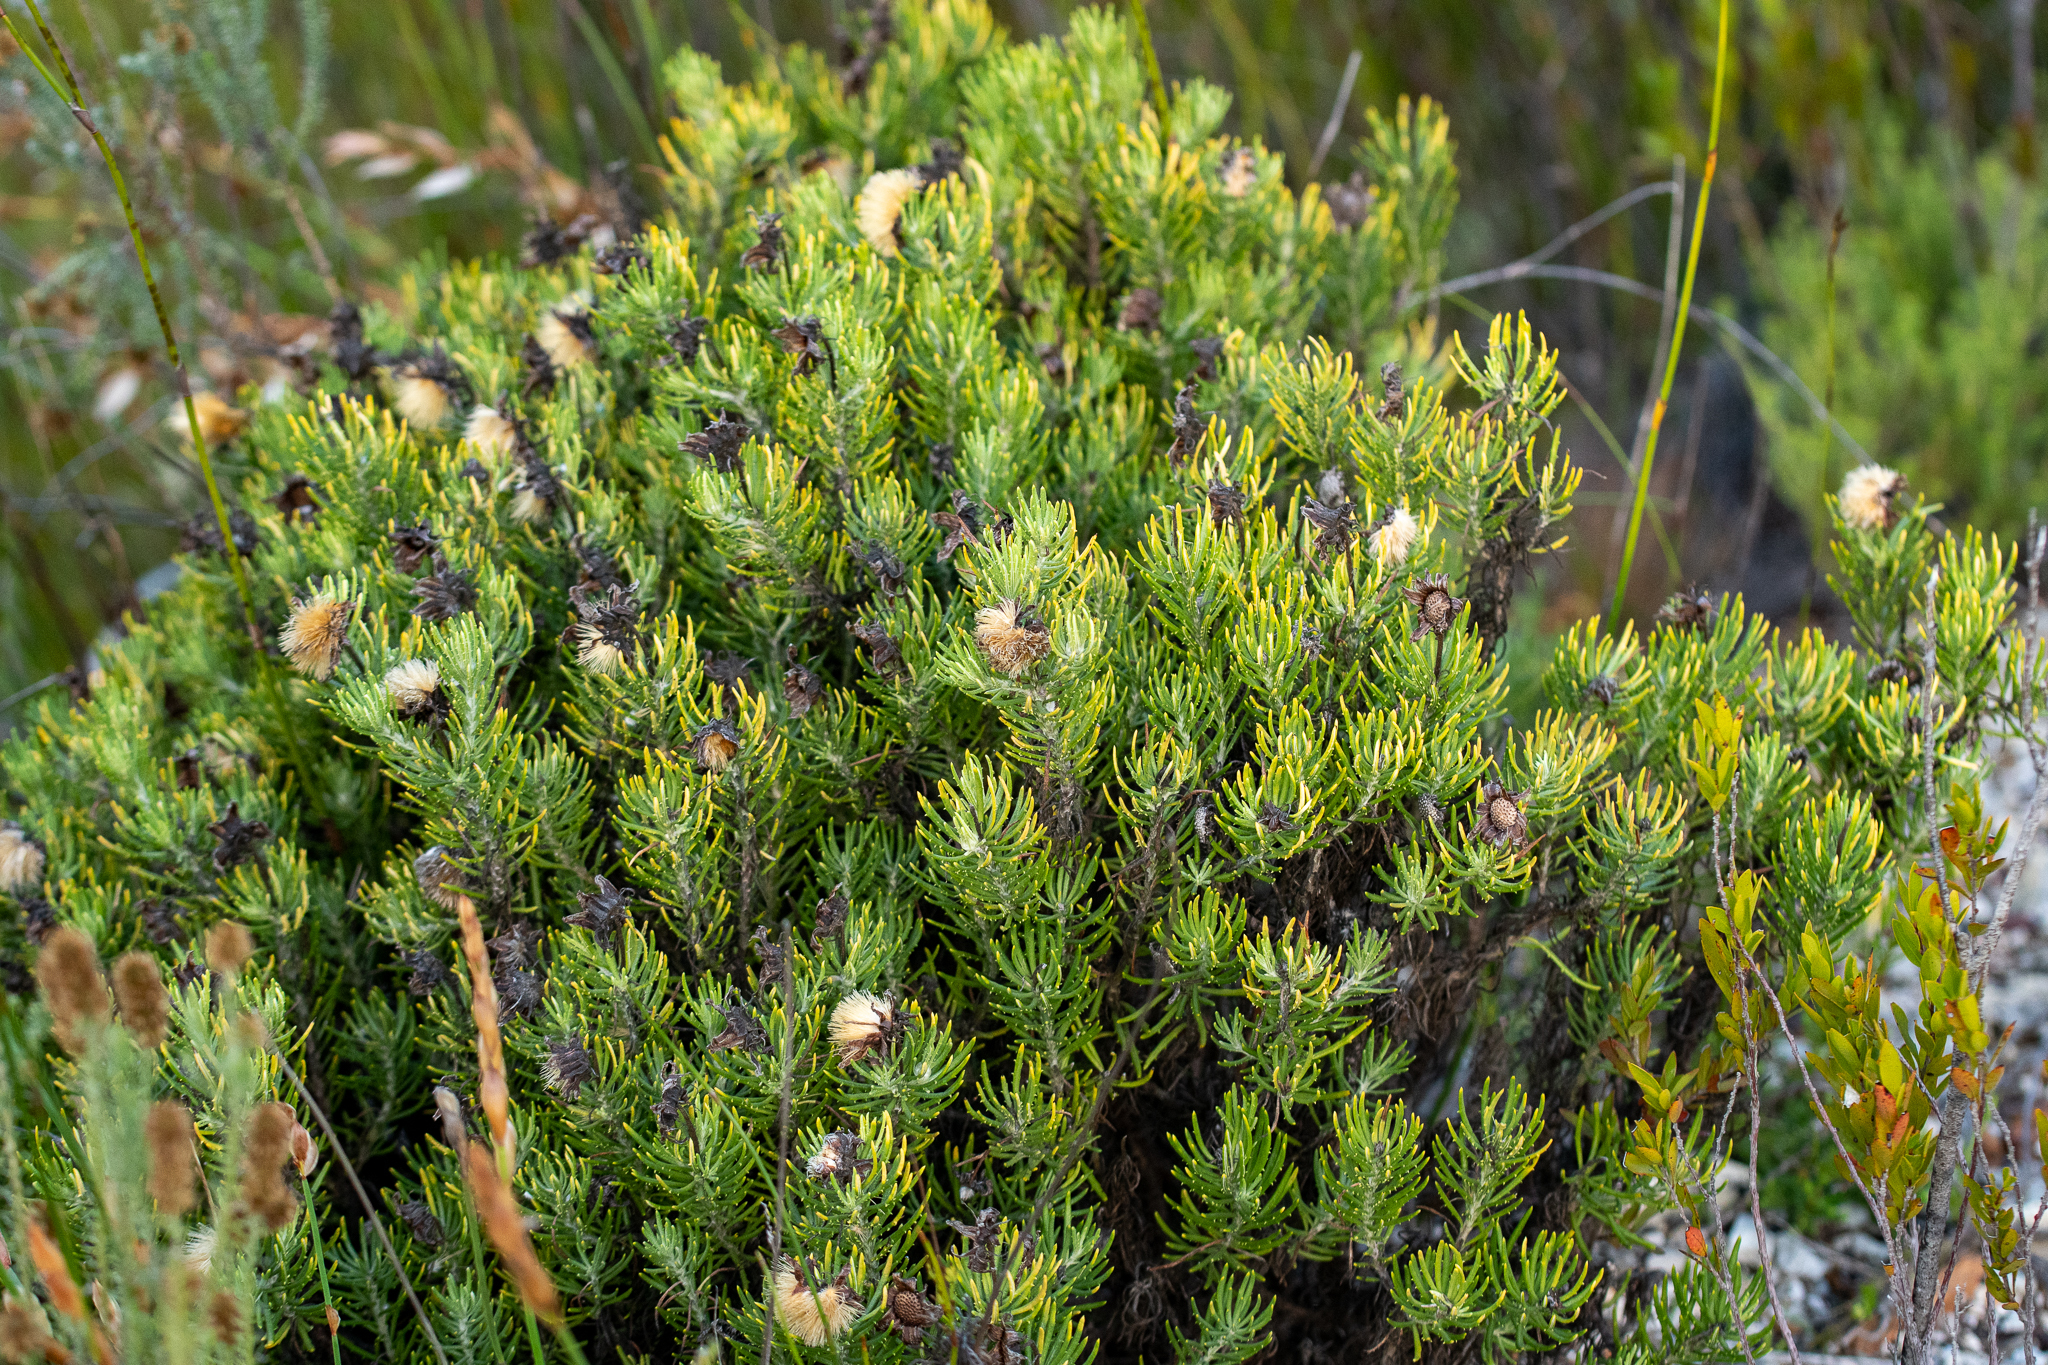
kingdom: Plantae
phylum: Tracheophyta
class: Magnoliopsida
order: Asterales
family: Asteraceae
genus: Heterolepis
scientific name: Heterolepis aliena
